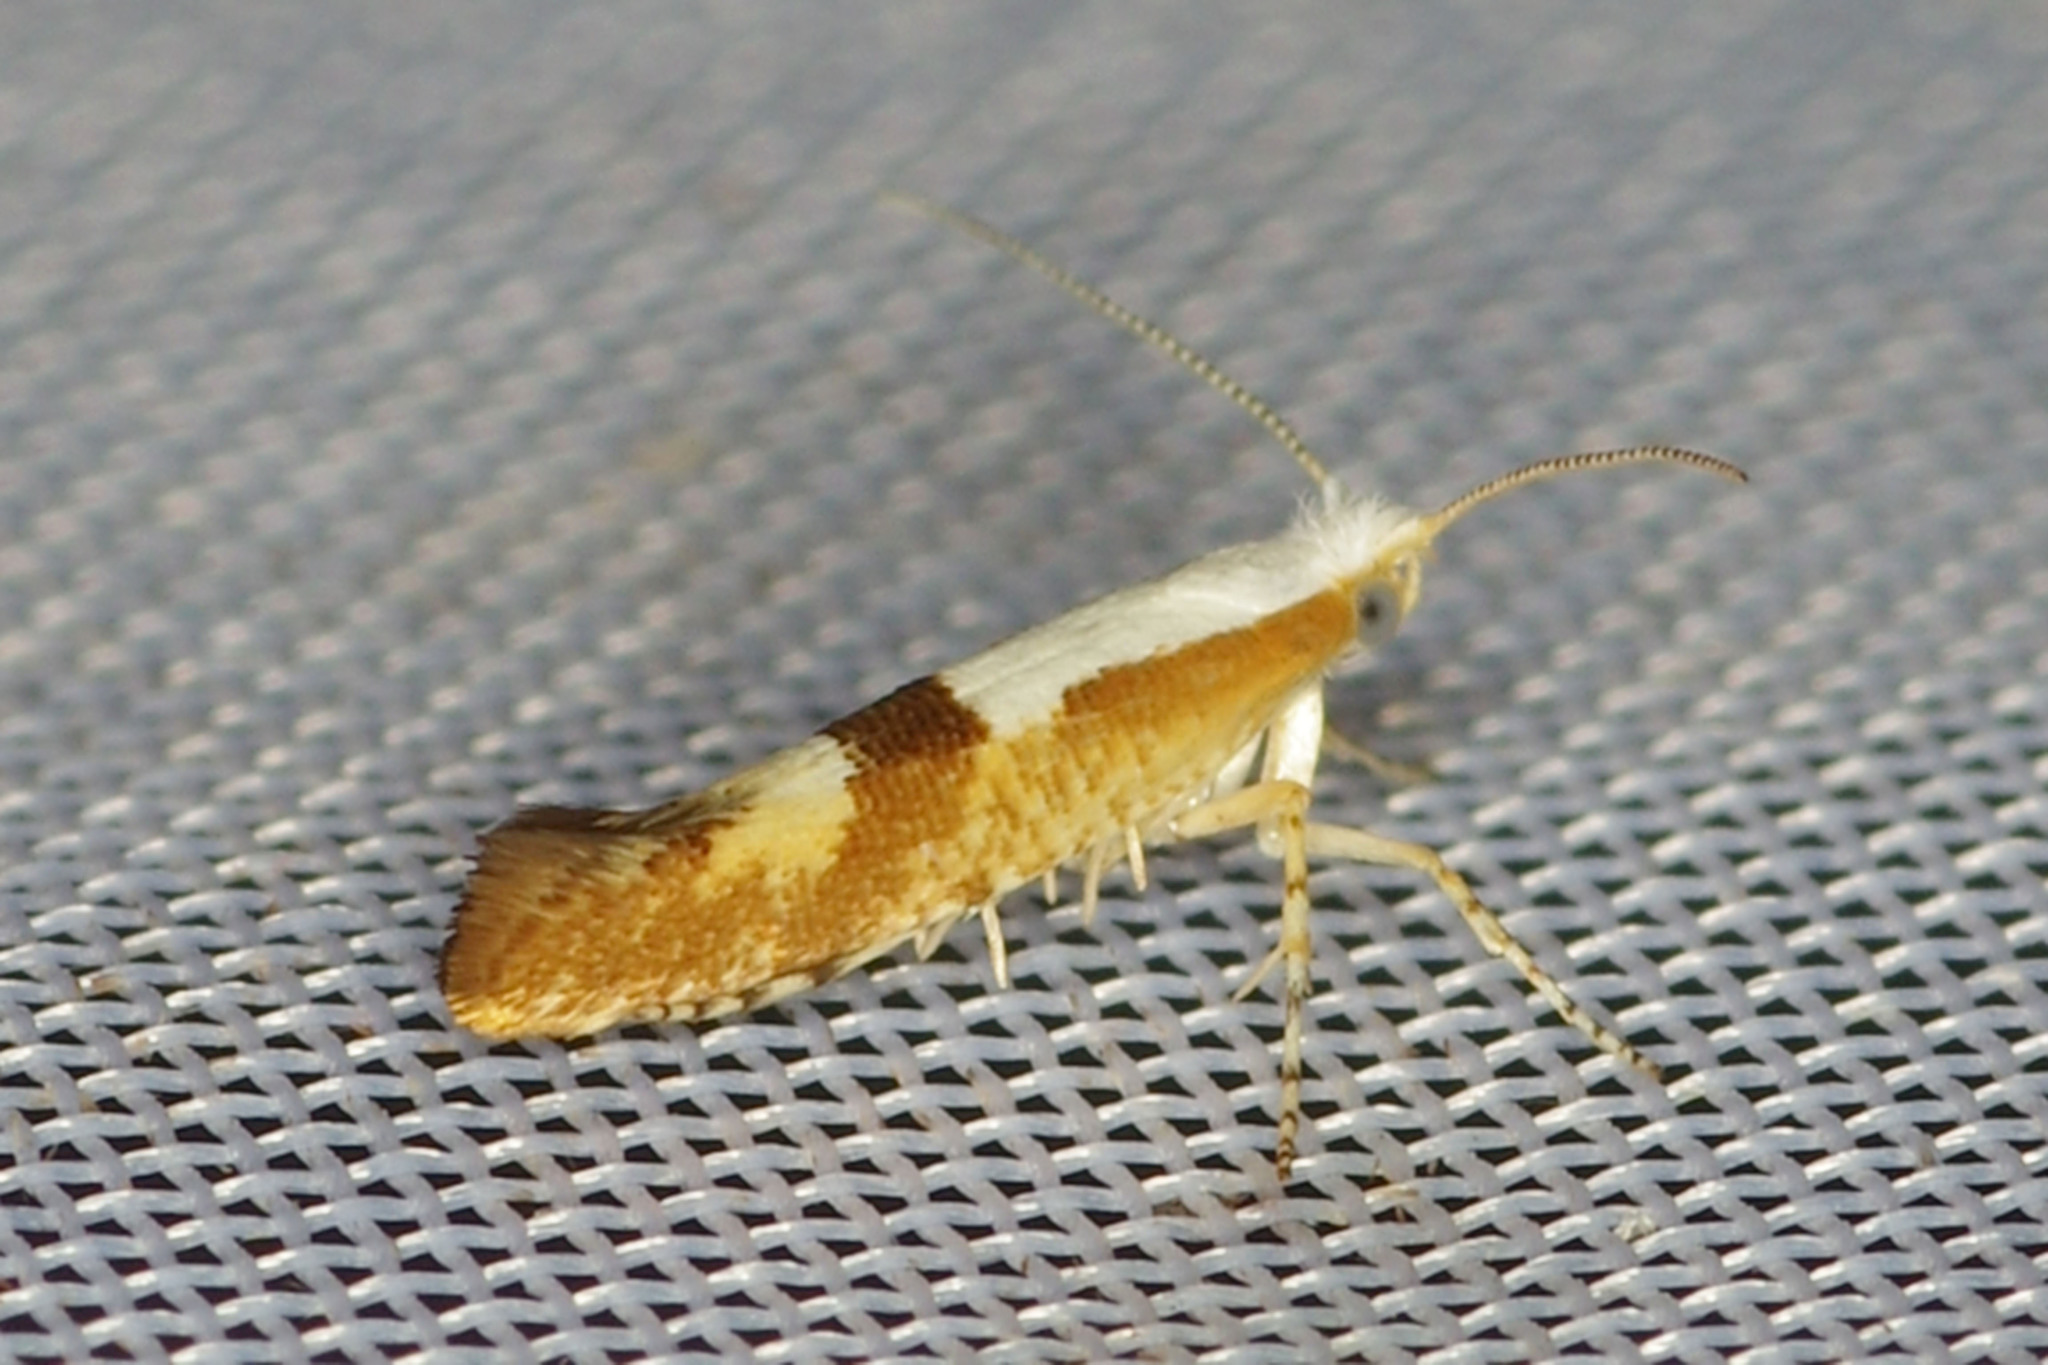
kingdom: Animalia
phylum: Arthropoda
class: Insecta
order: Lepidoptera
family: Argyresthiidae
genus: Argyresthia
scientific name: Argyresthia pruniella
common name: Cherry fruit moth
